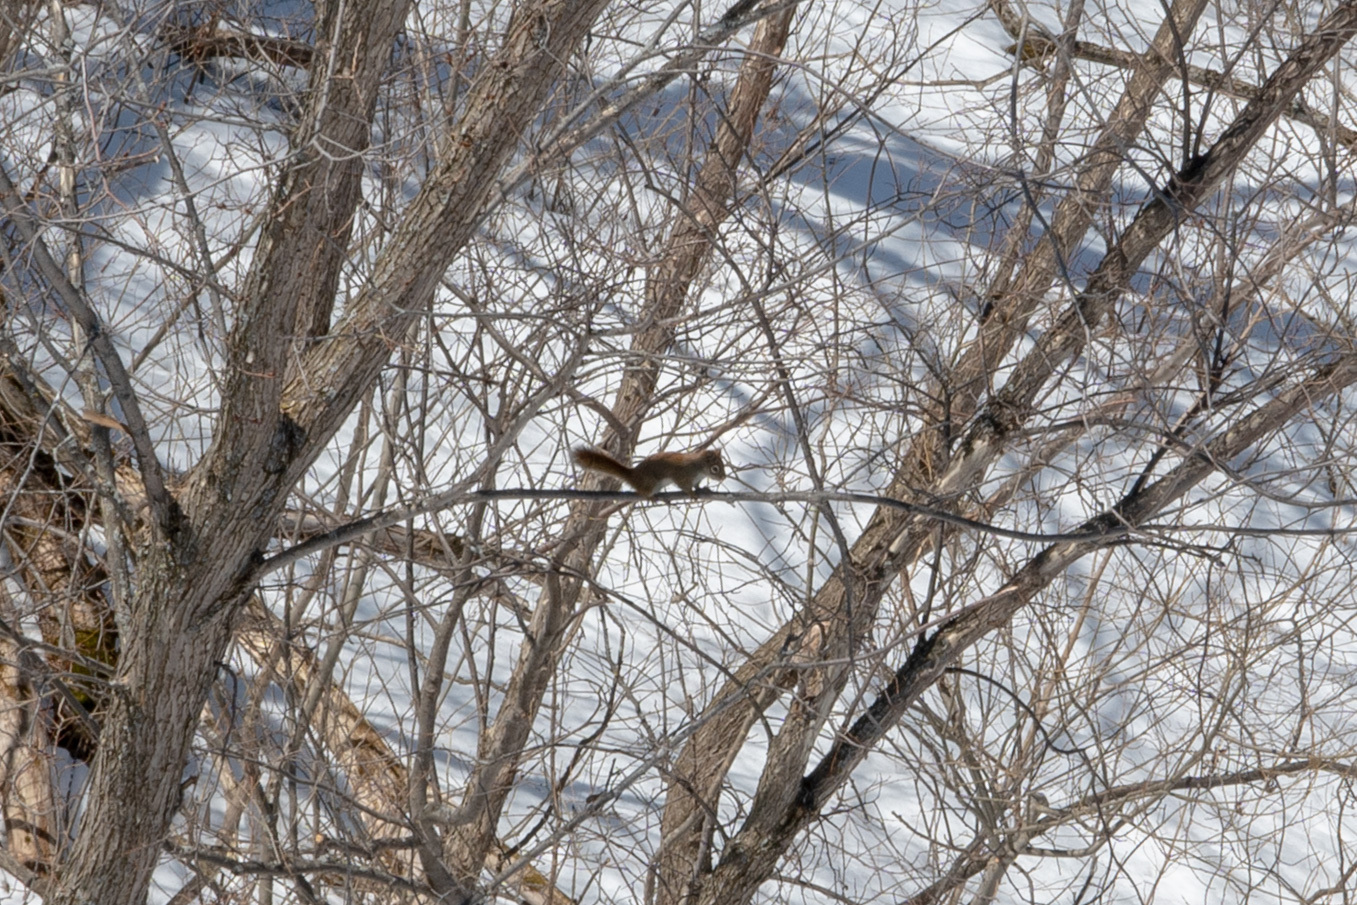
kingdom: Animalia
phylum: Chordata
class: Mammalia
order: Rodentia
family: Sciuridae
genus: Tamiasciurus
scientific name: Tamiasciurus hudsonicus
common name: Red squirrel
